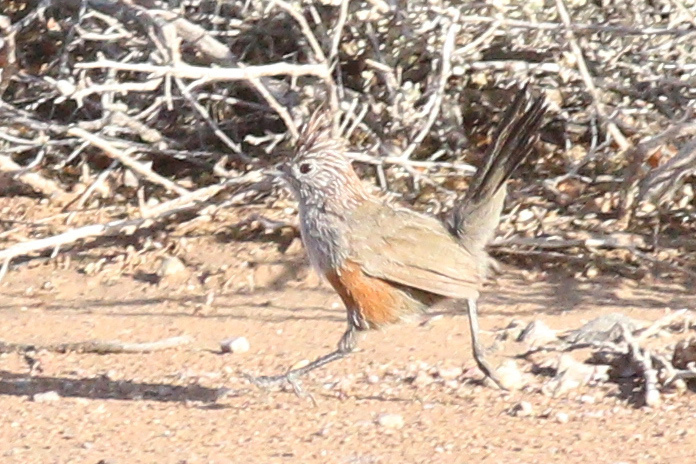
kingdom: Animalia
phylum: Chordata
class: Aves
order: Passeriformes
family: Rhinocryptidae
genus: Rhinocrypta
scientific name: Rhinocrypta lanceolata
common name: Crested gallito
